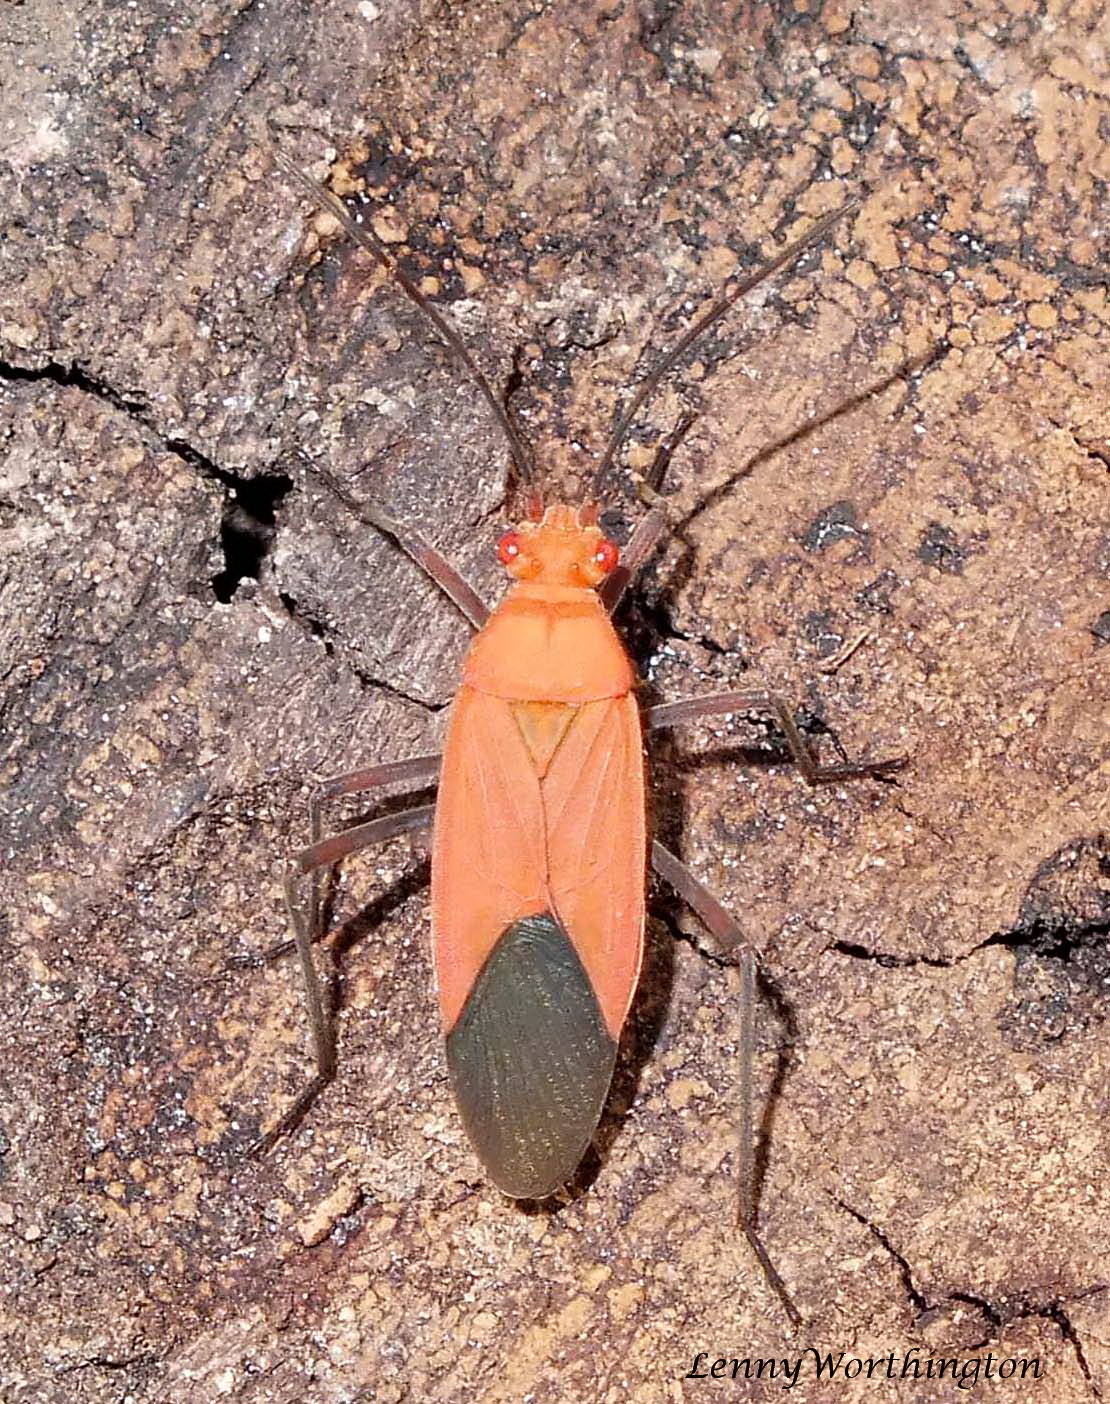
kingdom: Animalia
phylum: Arthropoda
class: Insecta
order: Hemiptera
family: Rhopalidae
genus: Leptocoris
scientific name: Leptocoris dispar
